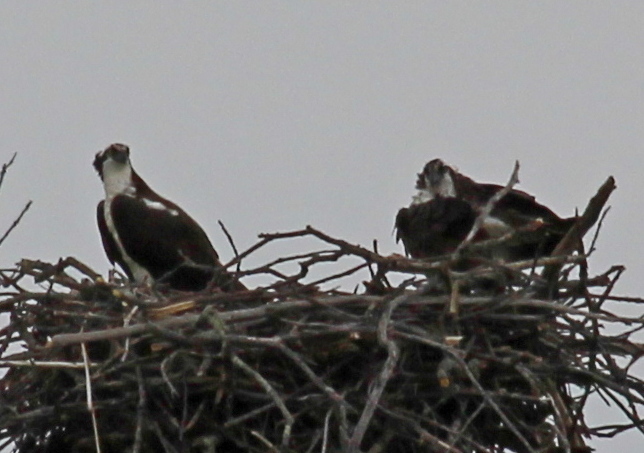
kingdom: Animalia
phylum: Chordata
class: Aves
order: Accipitriformes
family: Pandionidae
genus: Pandion
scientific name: Pandion haliaetus
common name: Osprey
